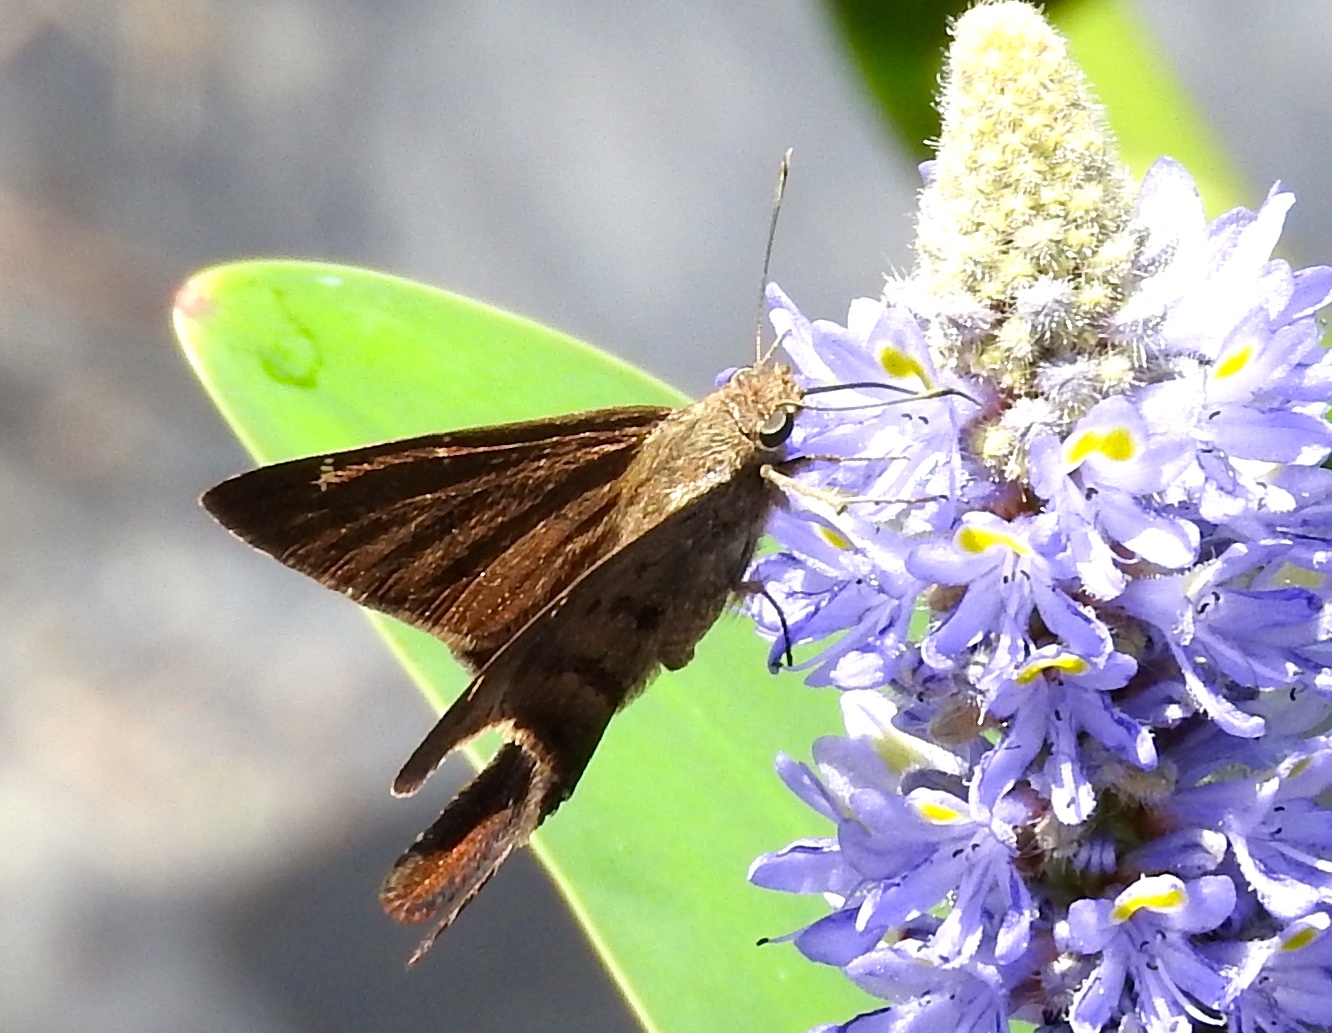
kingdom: Animalia
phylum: Arthropoda
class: Insecta
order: Lepidoptera
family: Hesperiidae
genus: Urbanus
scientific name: Urbanus procne
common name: Brown longtail
